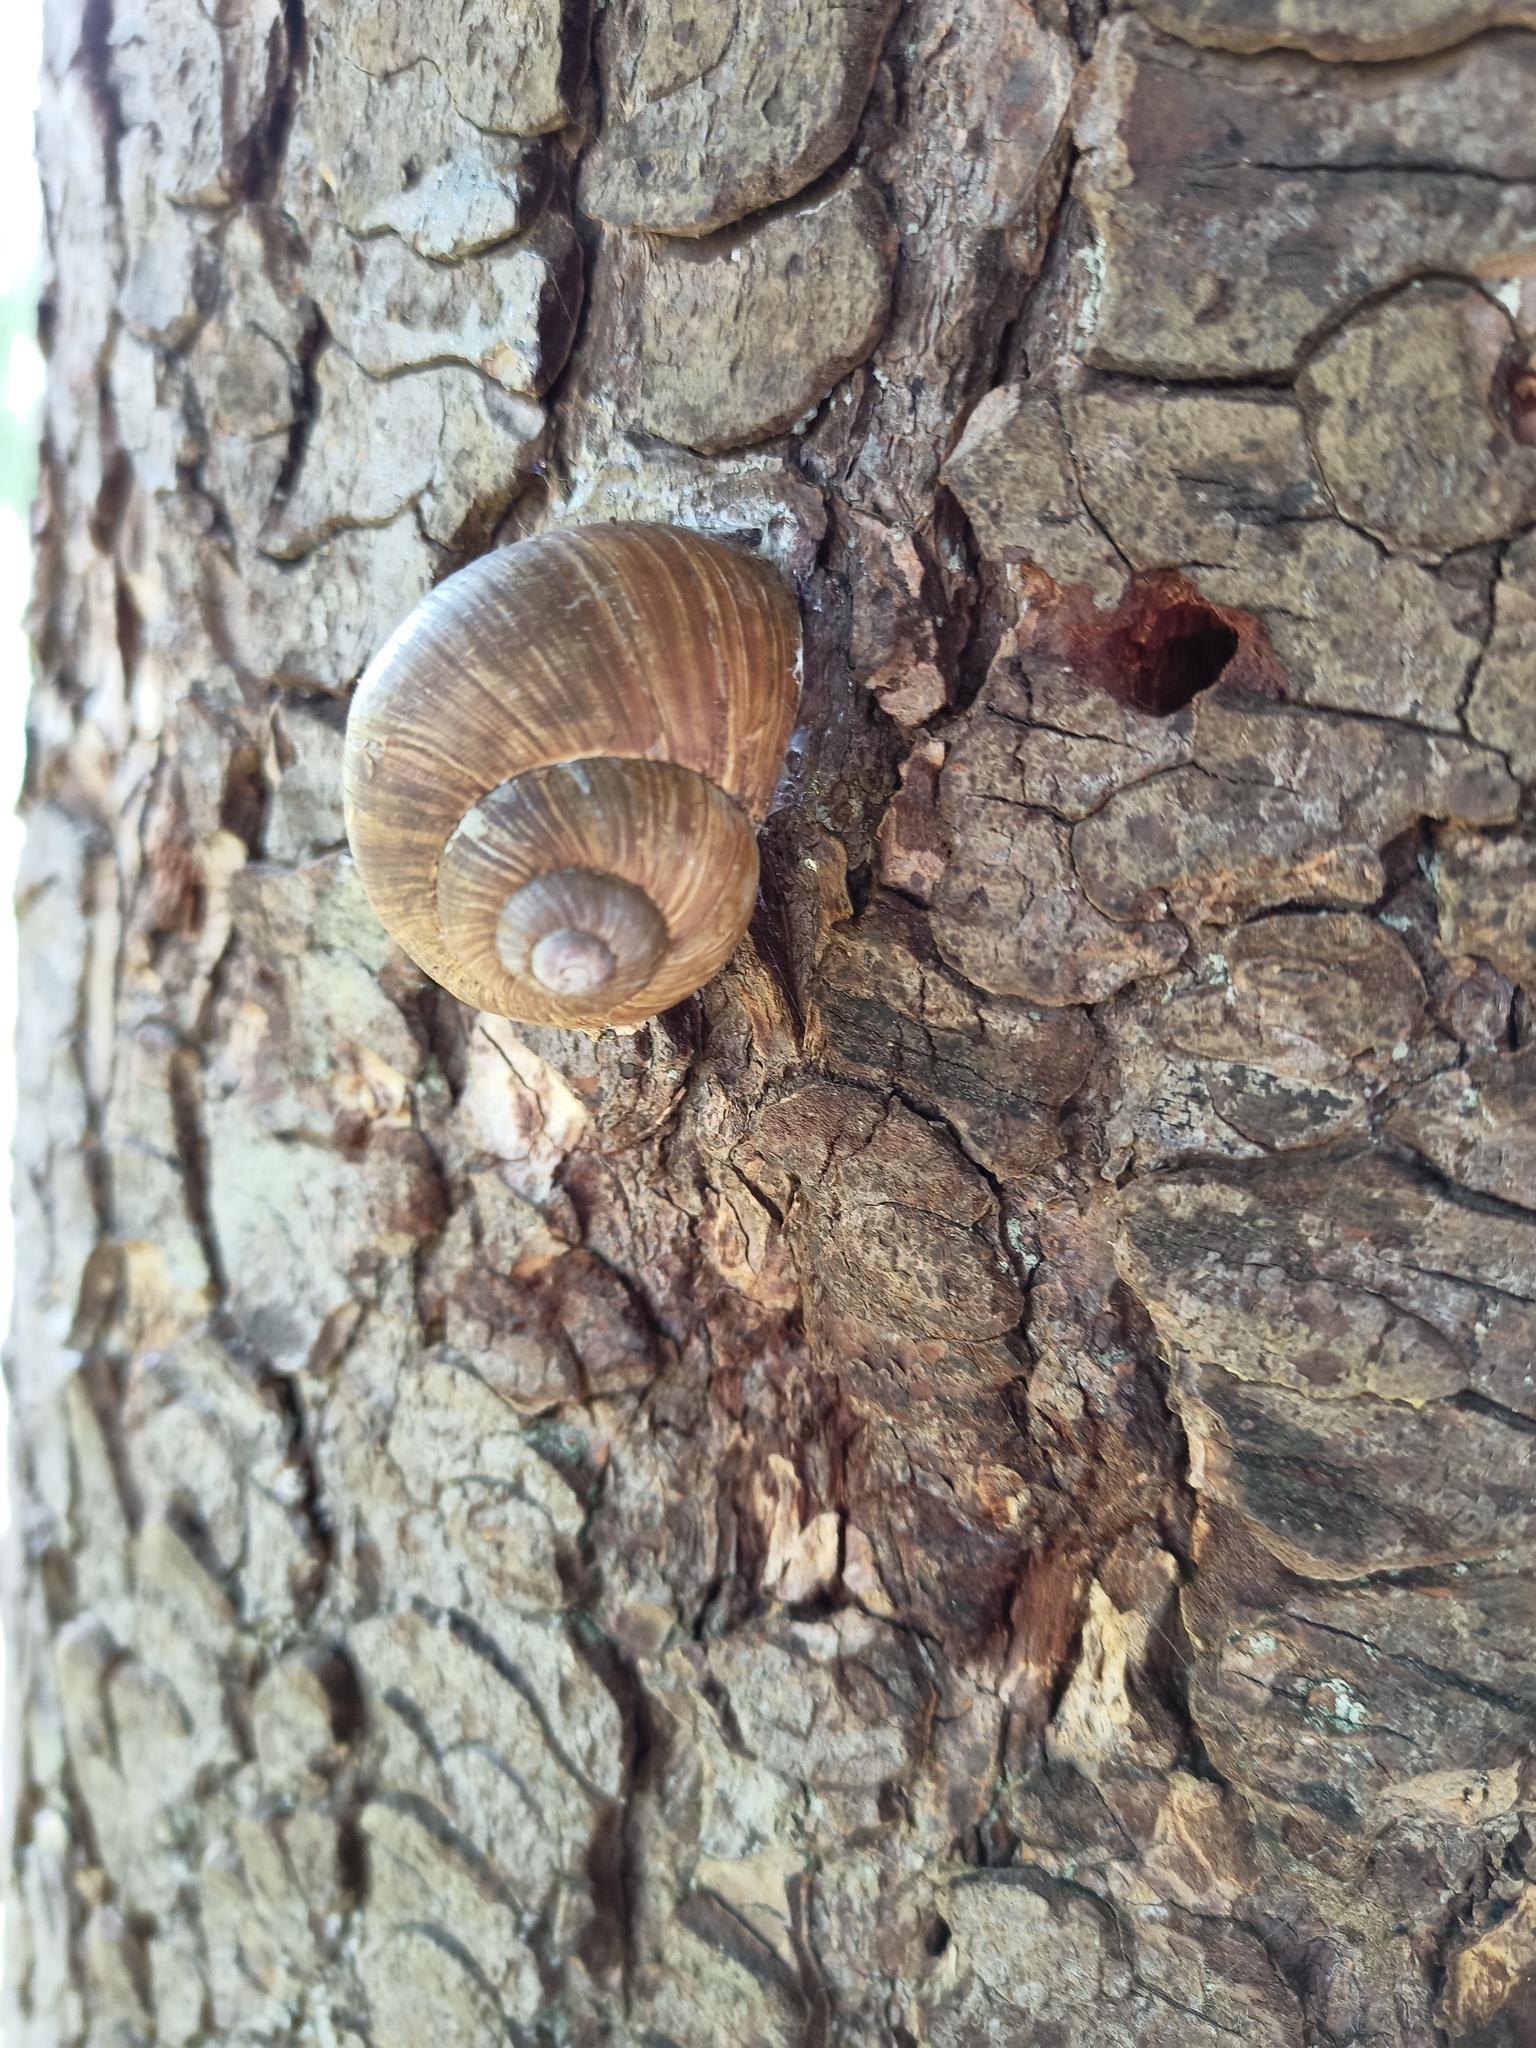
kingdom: Animalia
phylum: Mollusca
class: Gastropoda
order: Stylommatophora
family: Helicidae
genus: Helix
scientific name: Helix pomatia
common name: Roman snail
